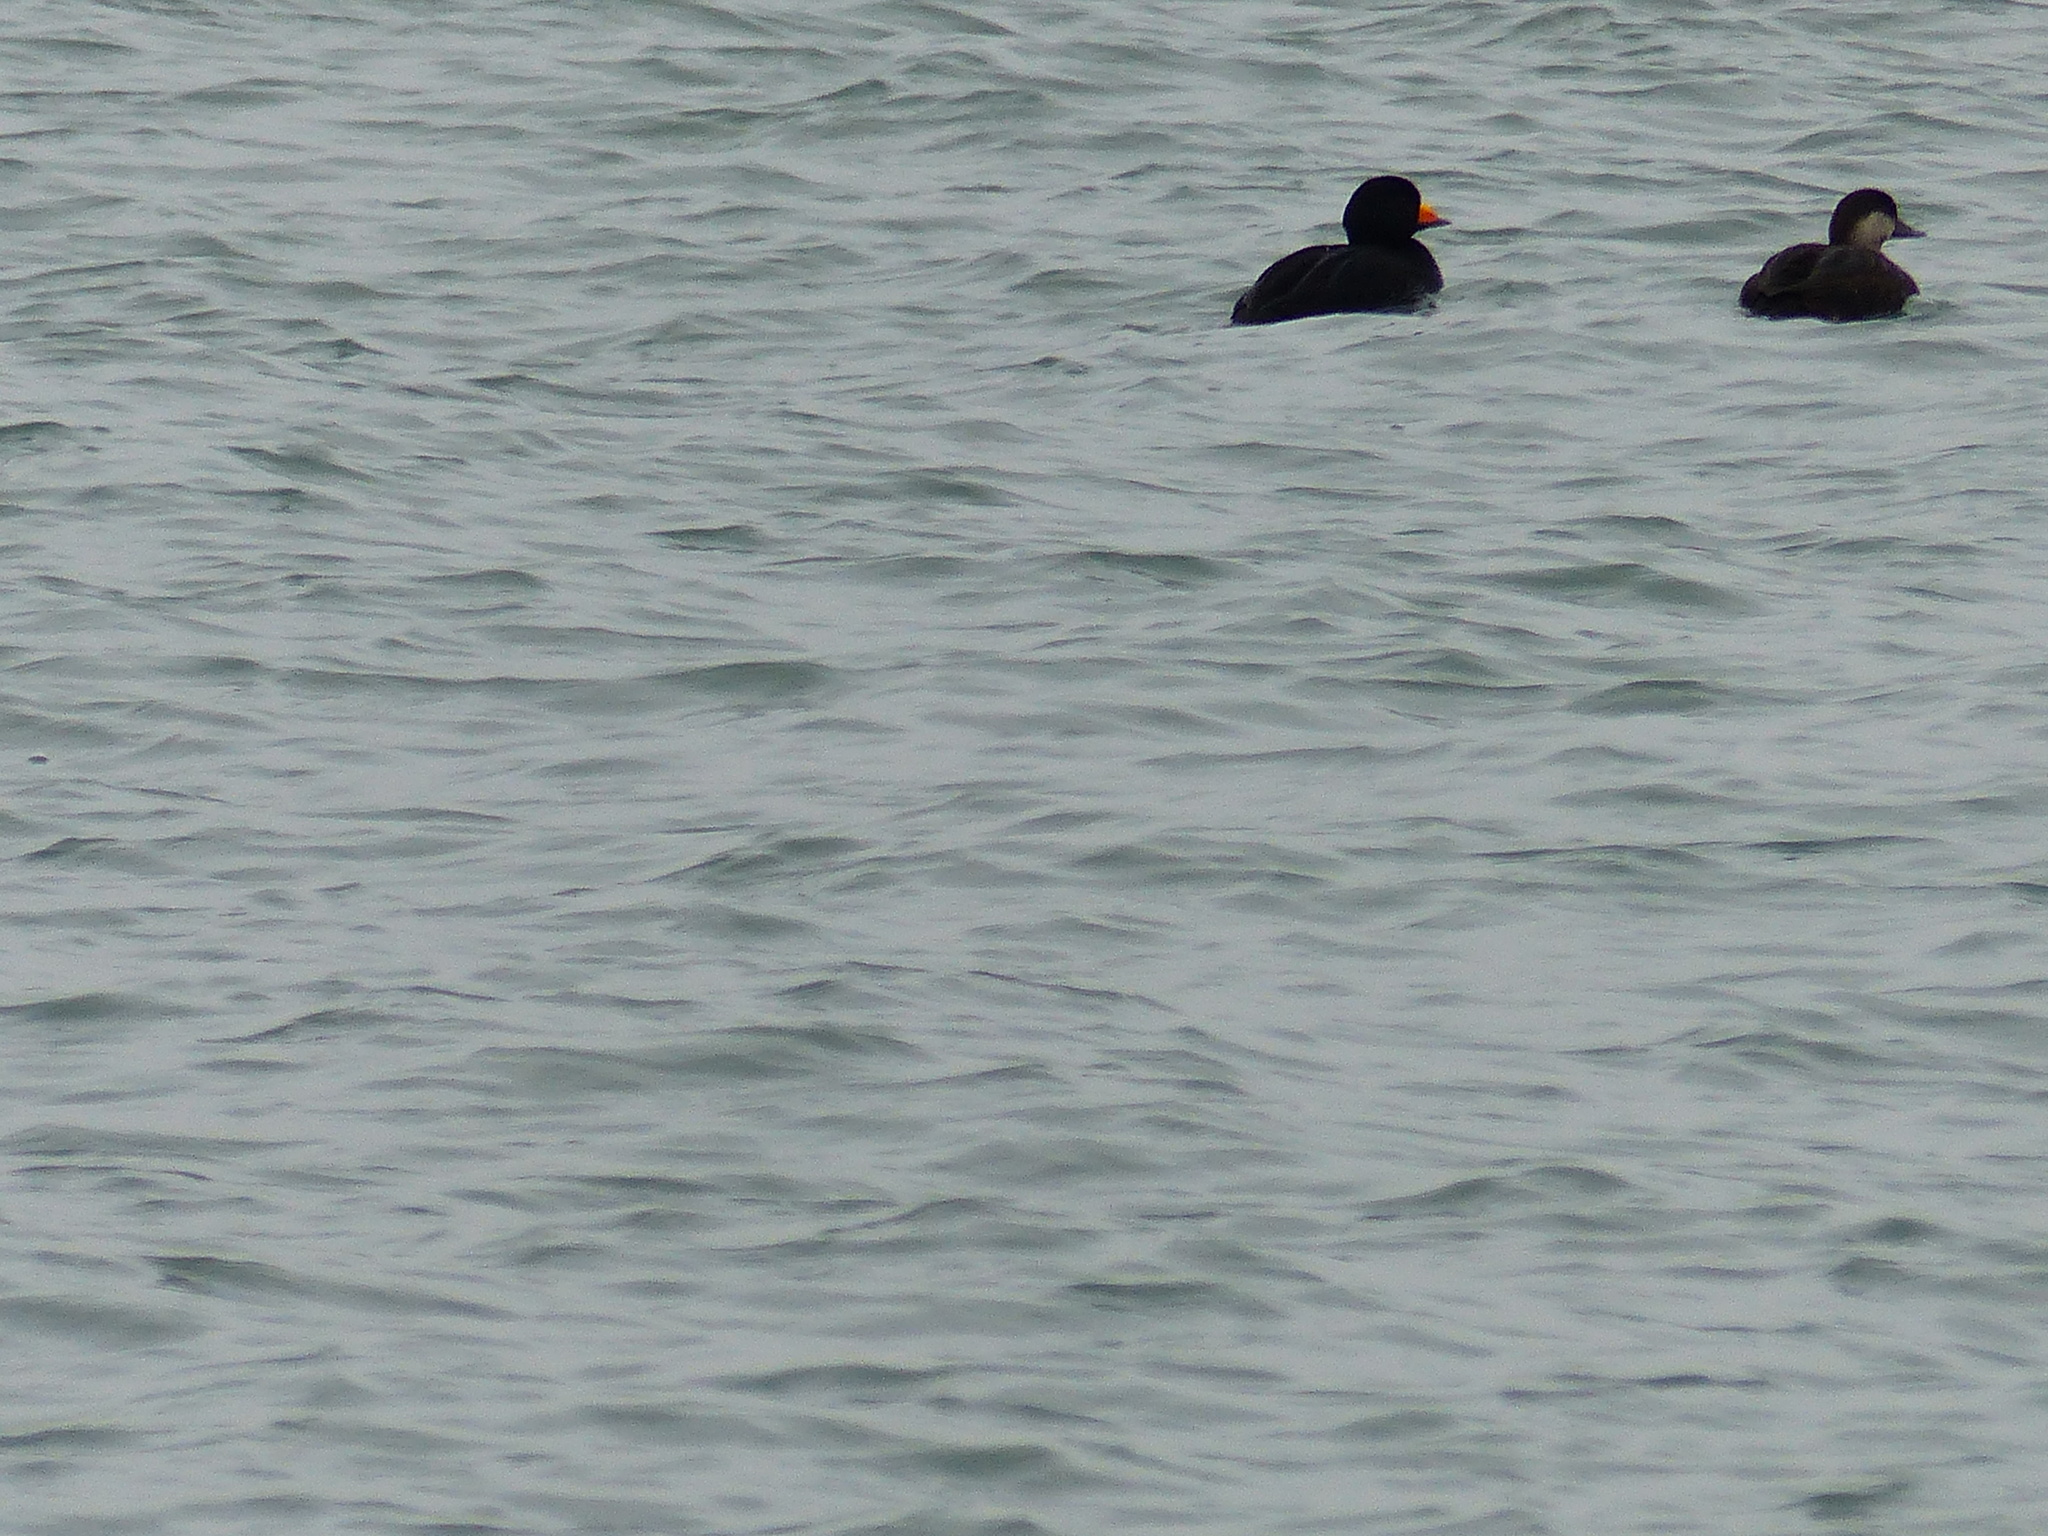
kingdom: Animalia
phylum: Chordata
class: Aves
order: Anseriformes
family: Anatidae
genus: Melanitta
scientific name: Melanitta americana
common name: Black scoter
